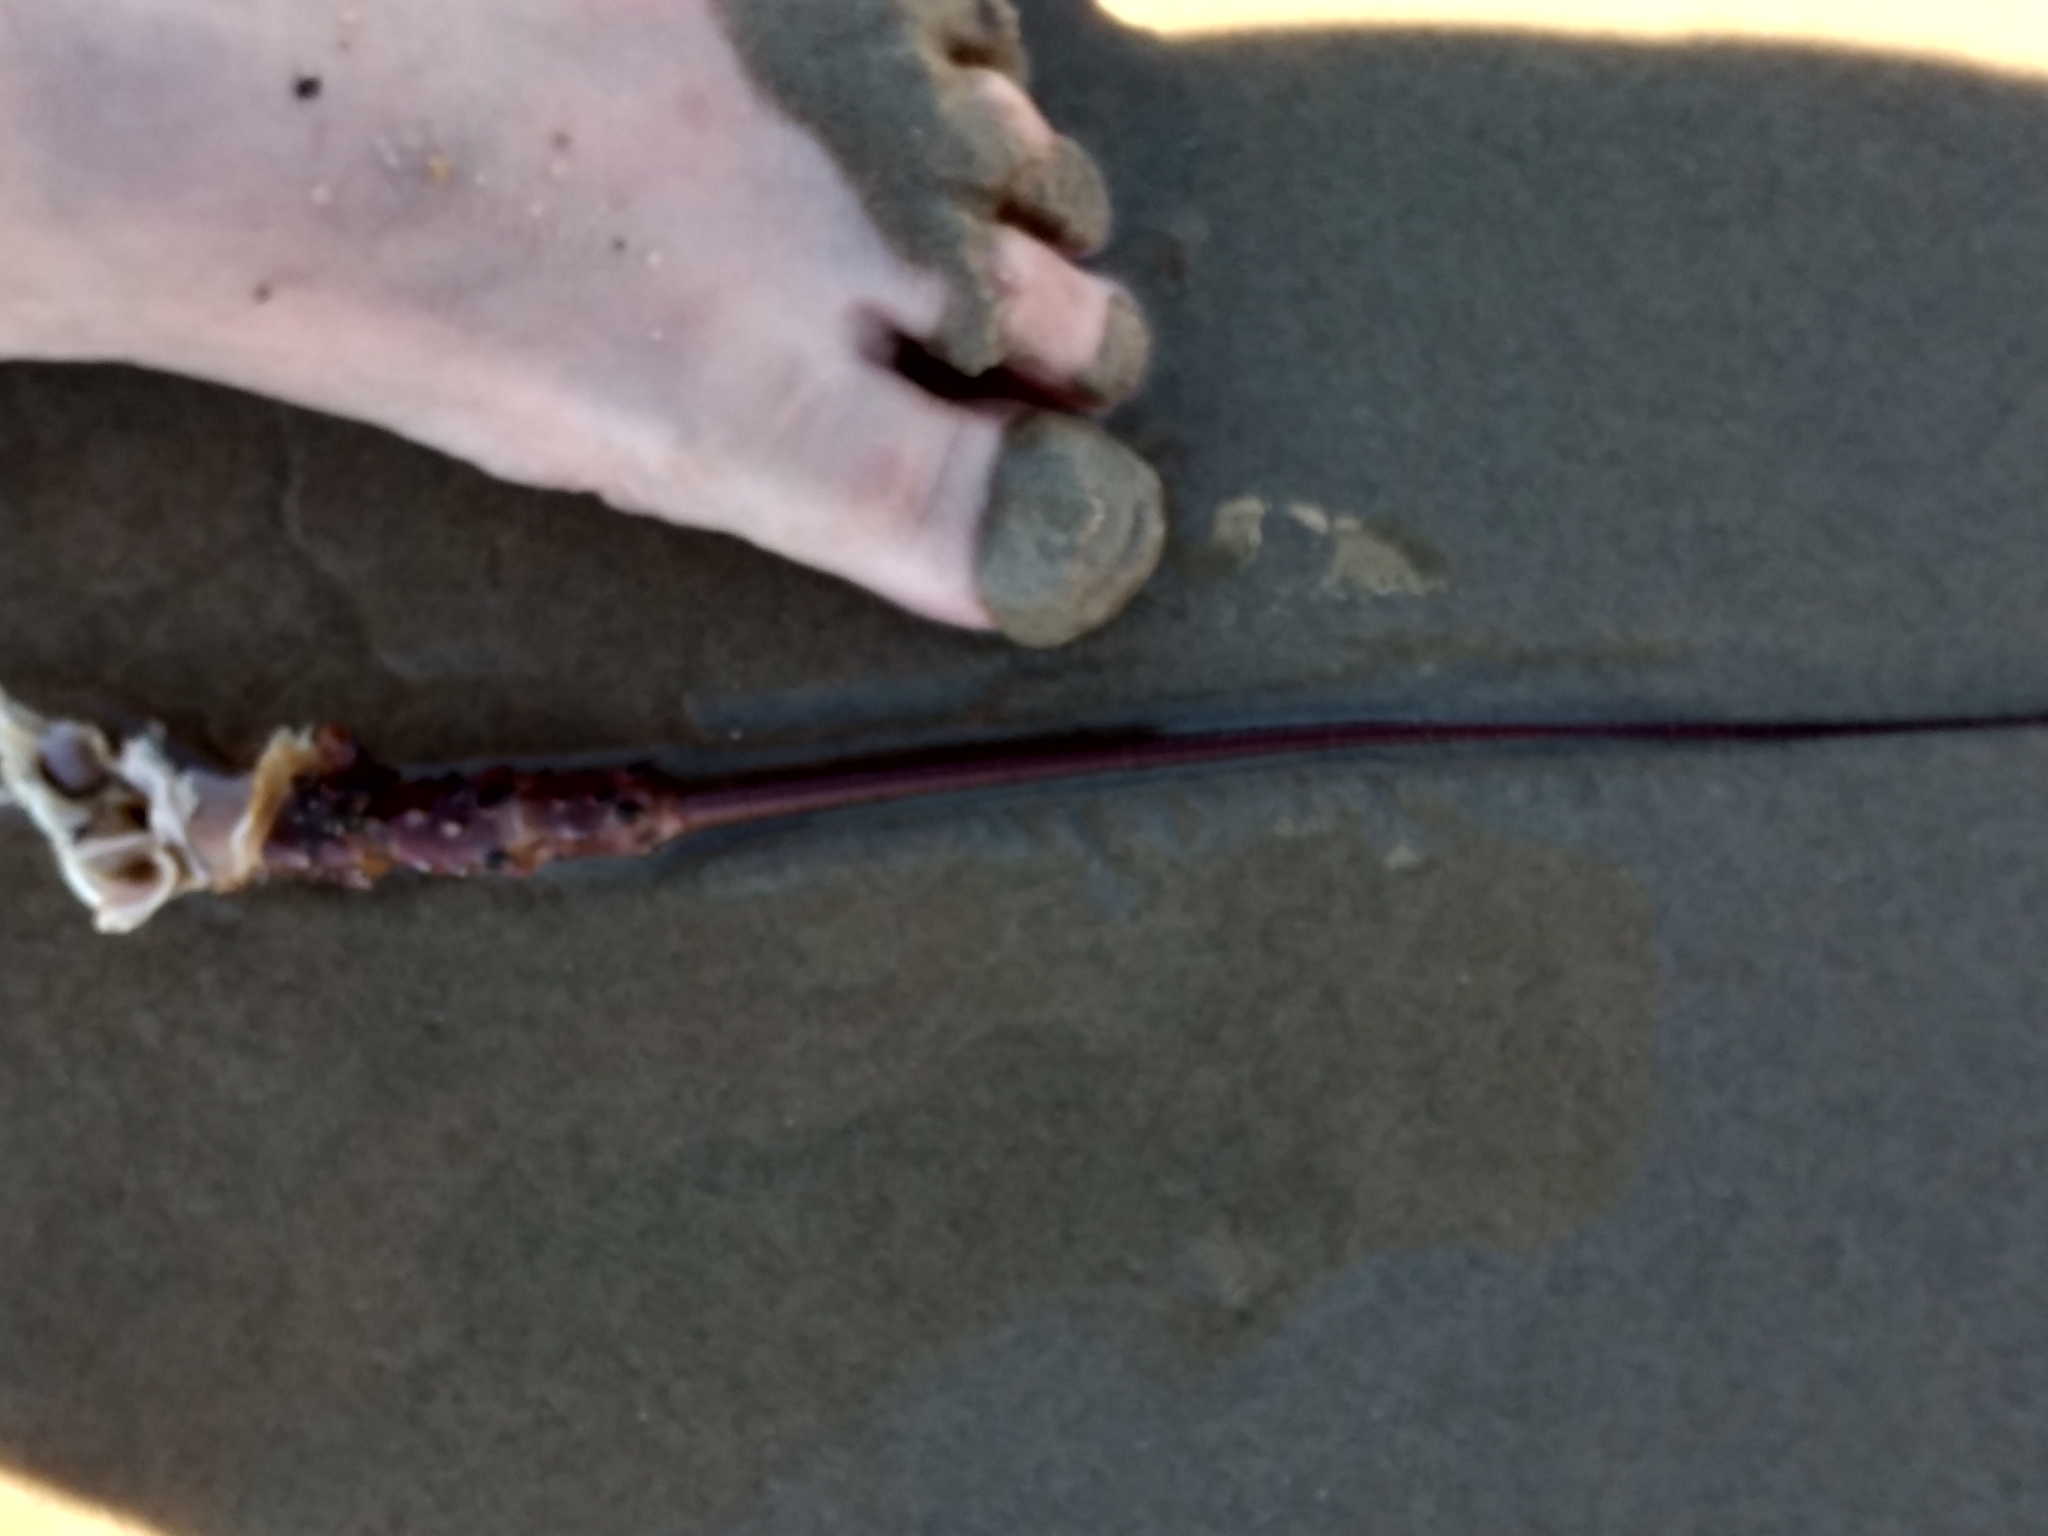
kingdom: Animalia
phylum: Arthropoda
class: Malacostraca
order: Decapoda
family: Palinuridae
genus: Panulirus
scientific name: Panulirus interruptus
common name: California spiny lobster
